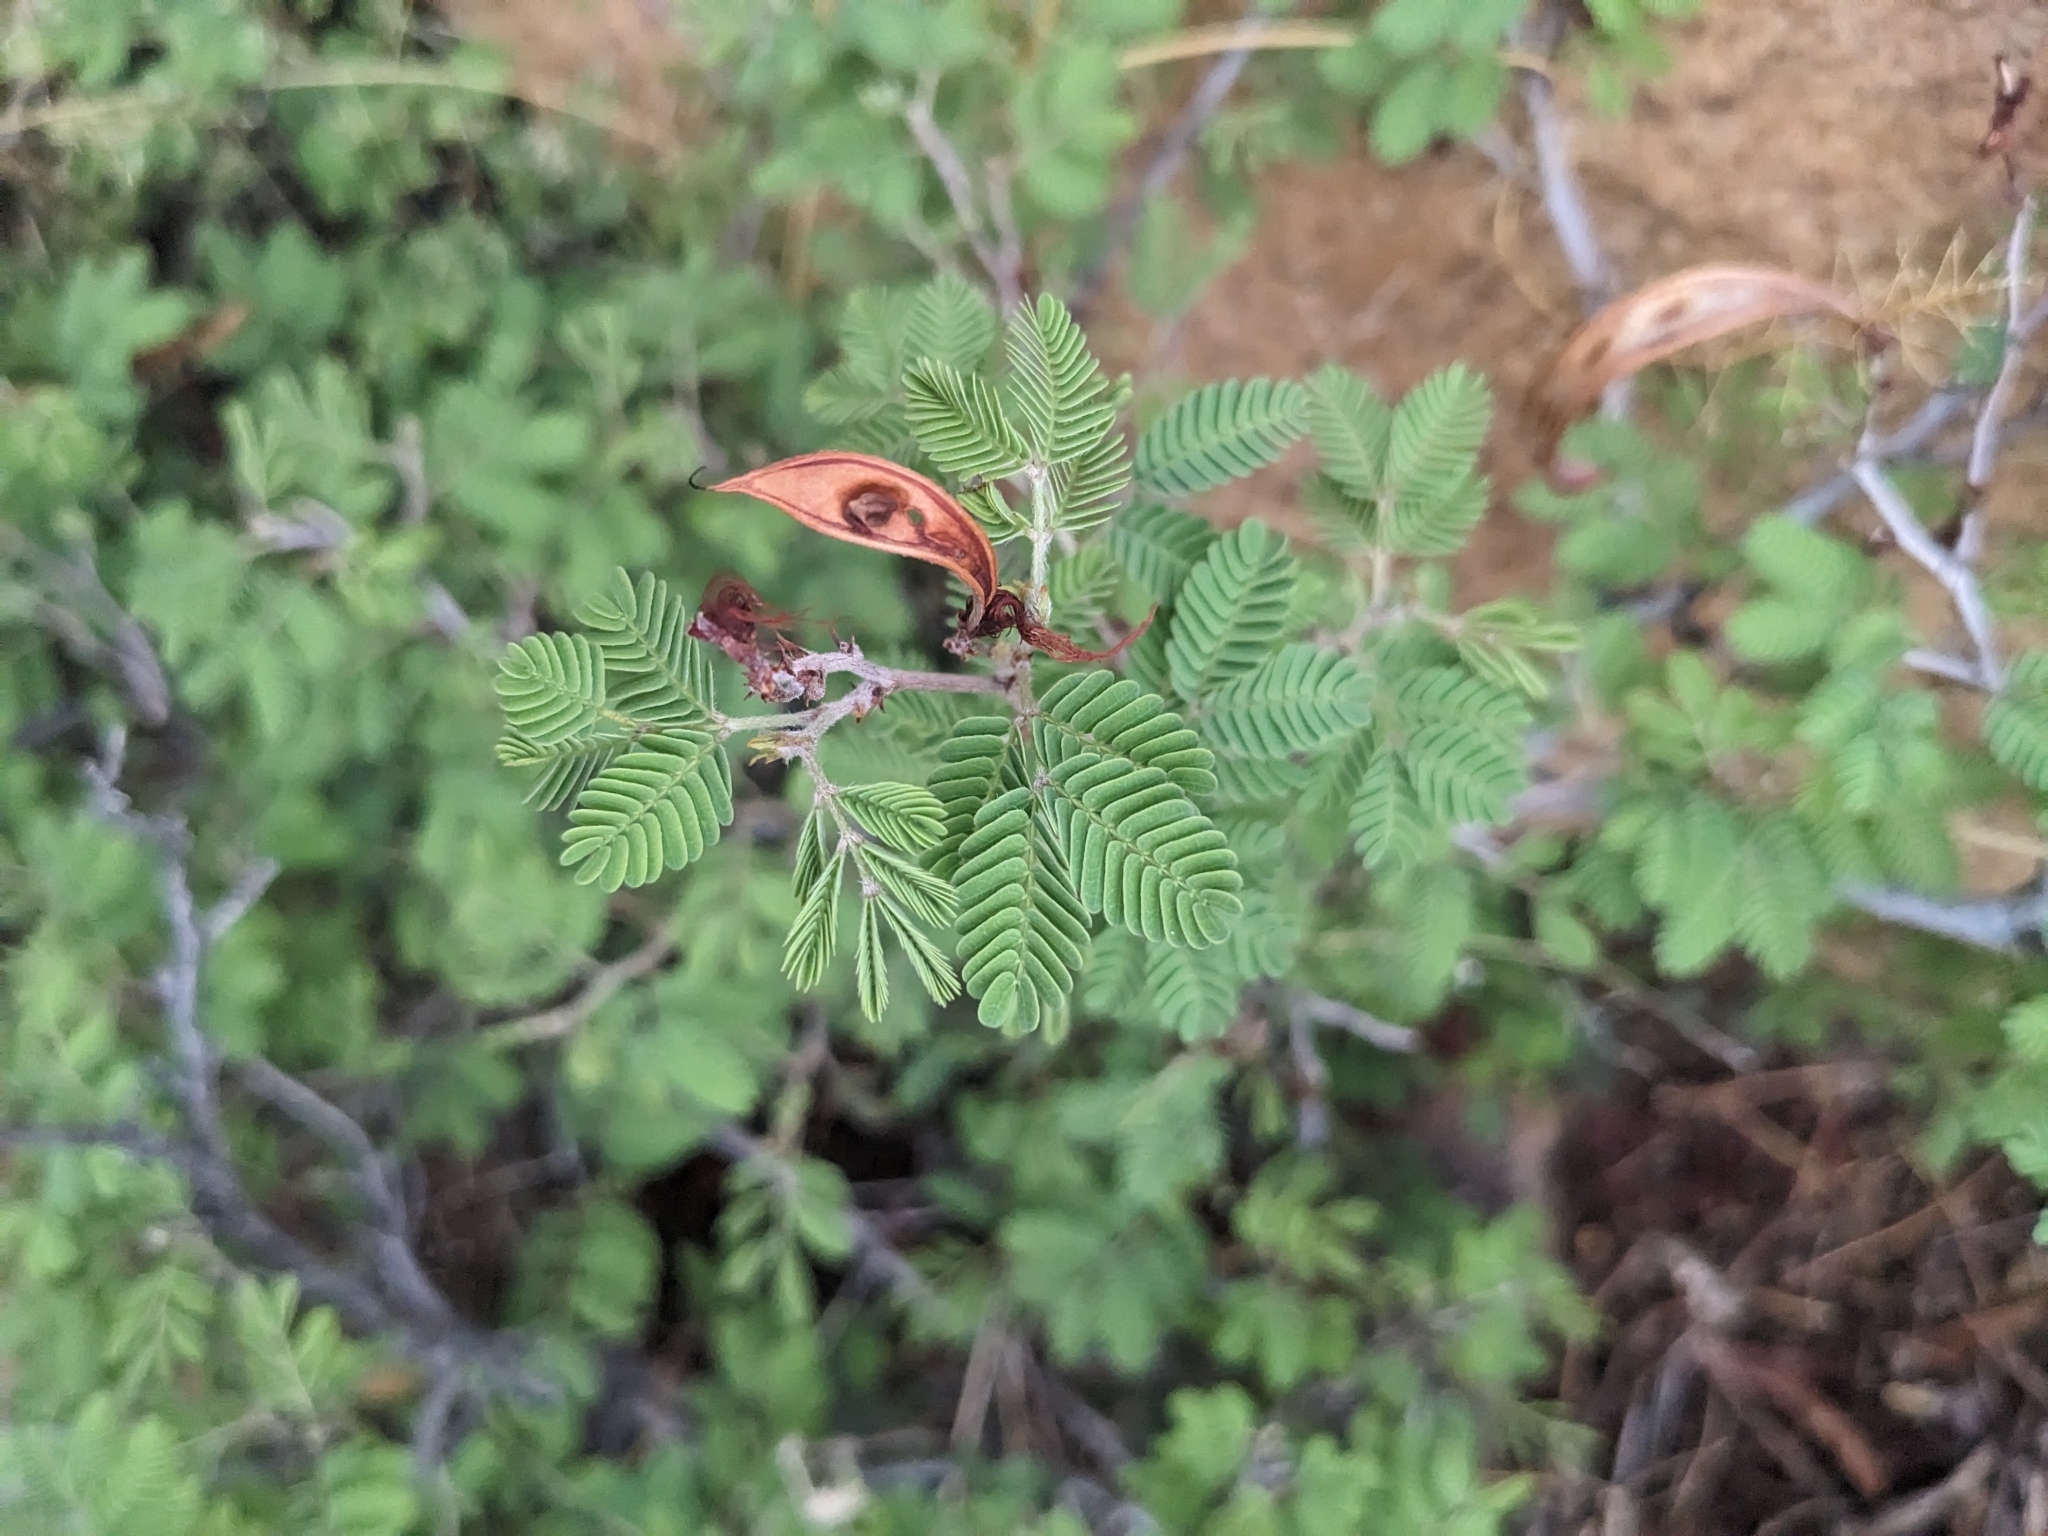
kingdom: Plantae
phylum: Tracheophyta
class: Magnoliopsida
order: Fabales
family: Fabaceae
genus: Calliandra
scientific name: Calliandra eriophylla
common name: Fairy-duster
